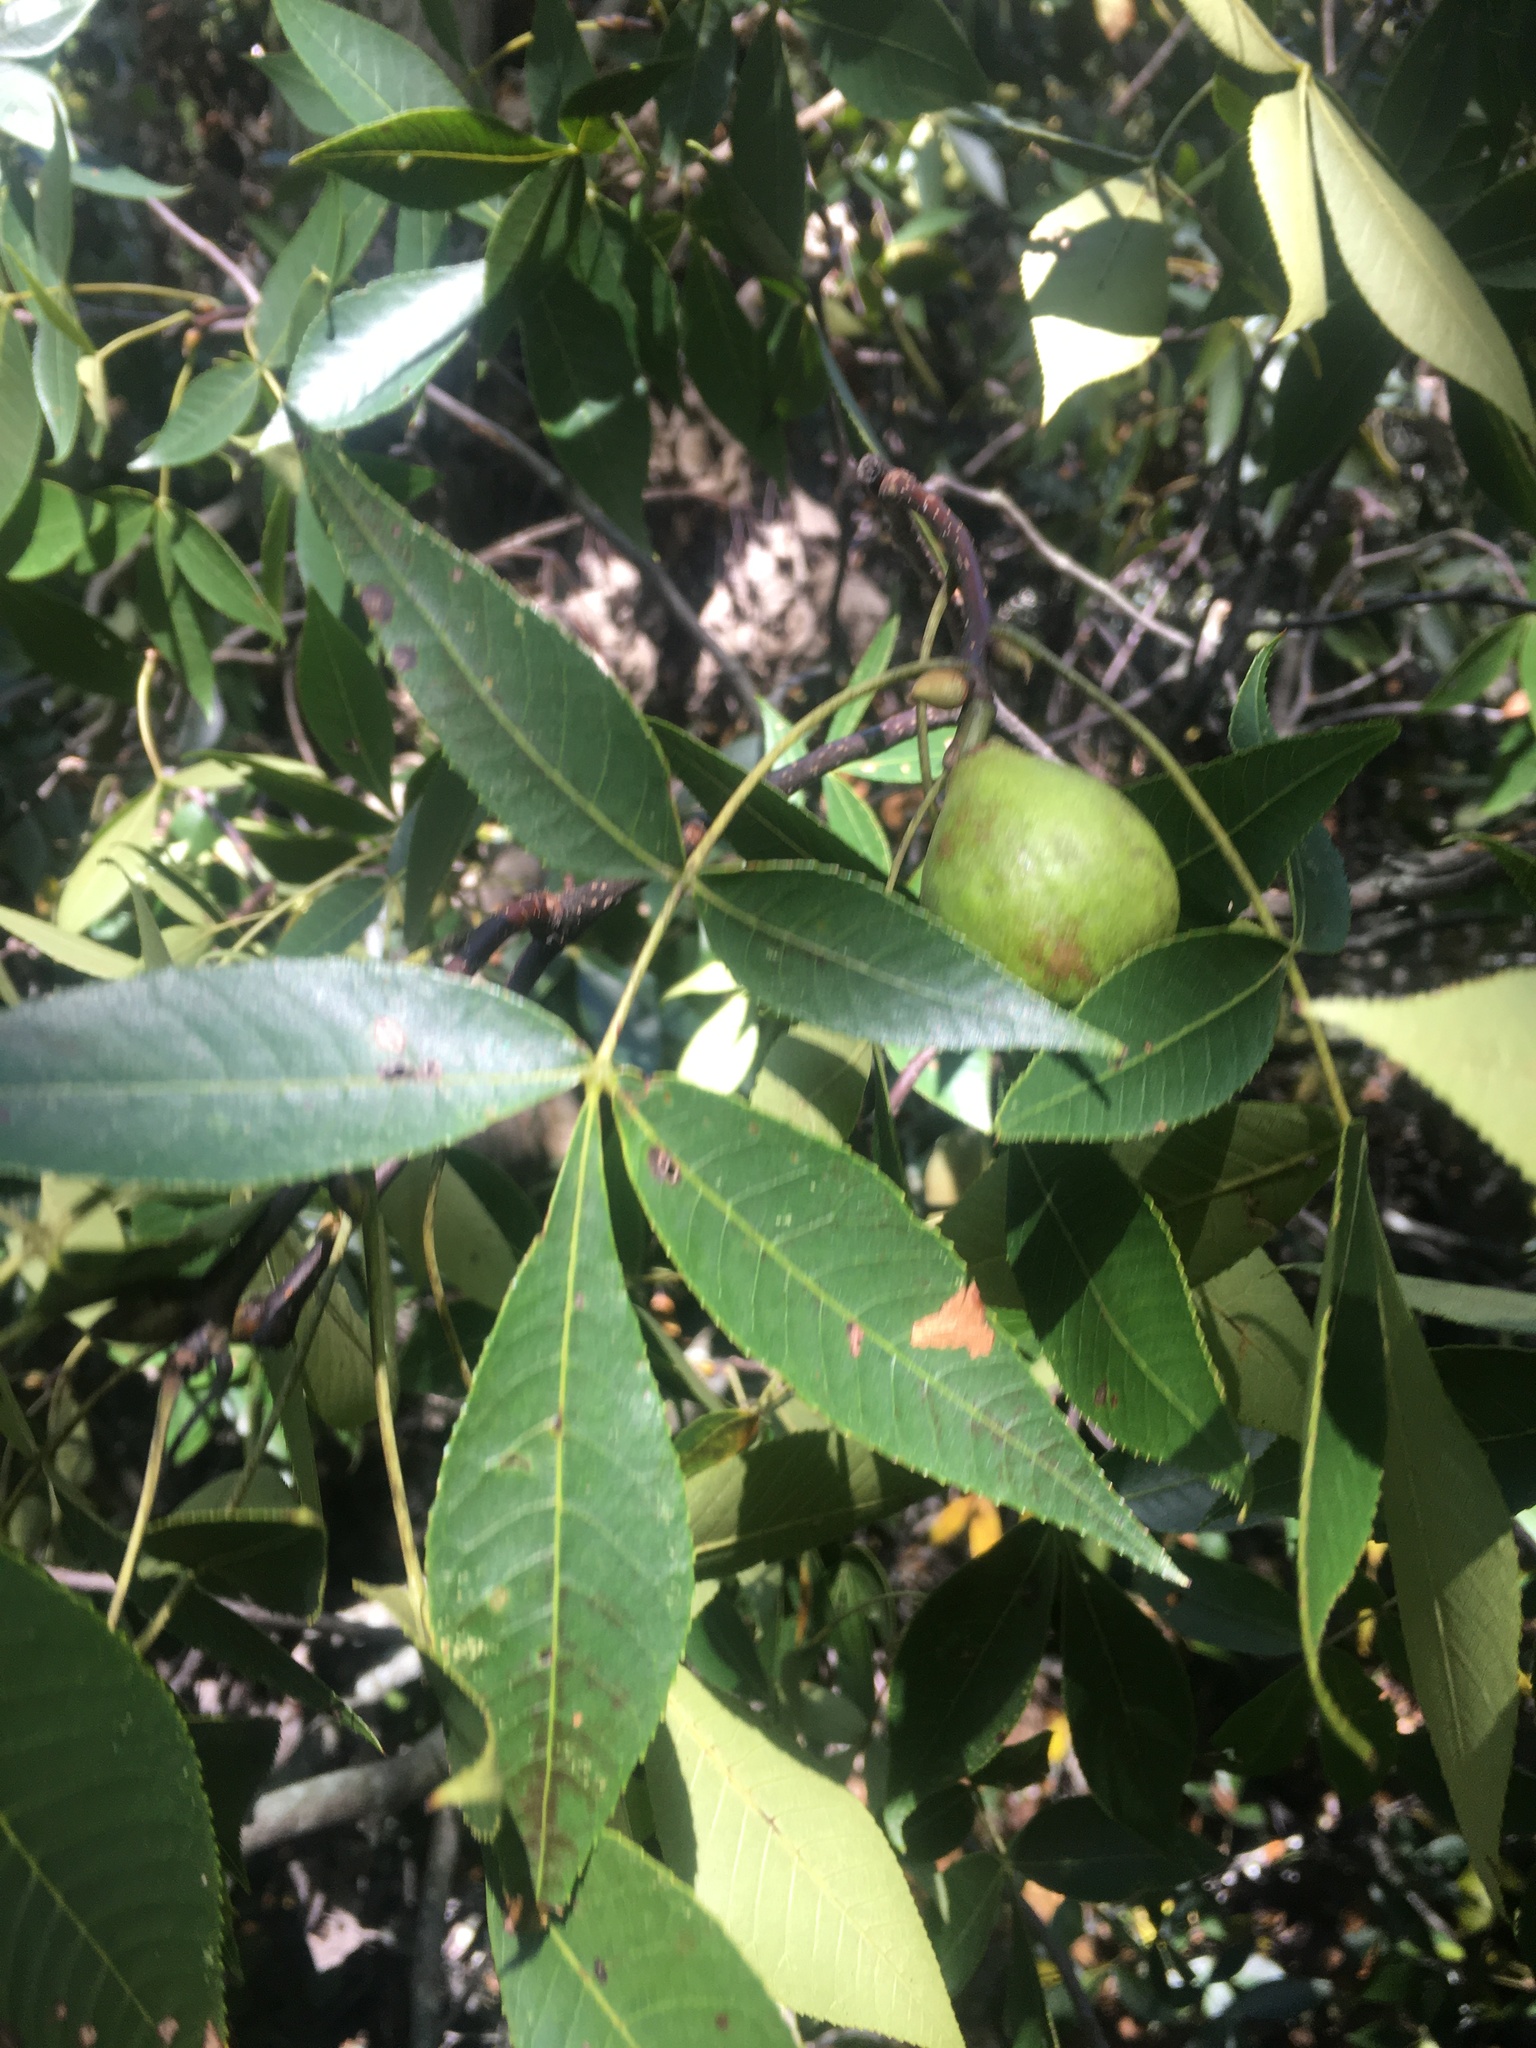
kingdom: Plantae
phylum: Tracheophyta
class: Magnoliopsida
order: Fagales
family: Juglandaceae
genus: Carya
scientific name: Carya glabra
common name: Pignut hickory
